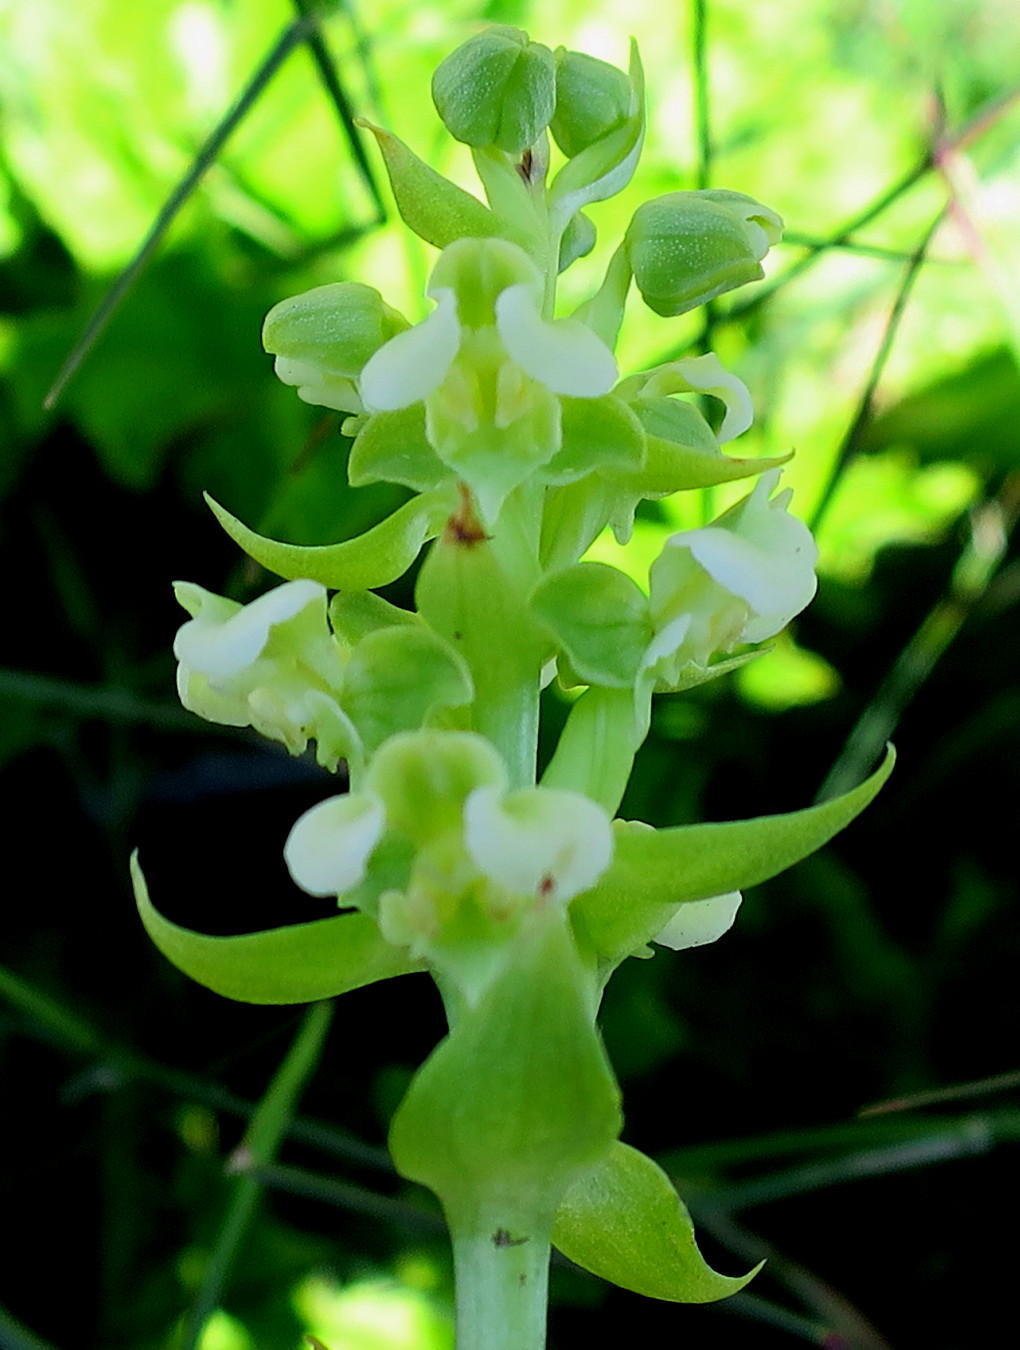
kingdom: Plantae
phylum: Tracheophyta
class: Liliopsida
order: Asparagales
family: Orchidaceae
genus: Pterygodium
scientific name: Pterygodium volucris
